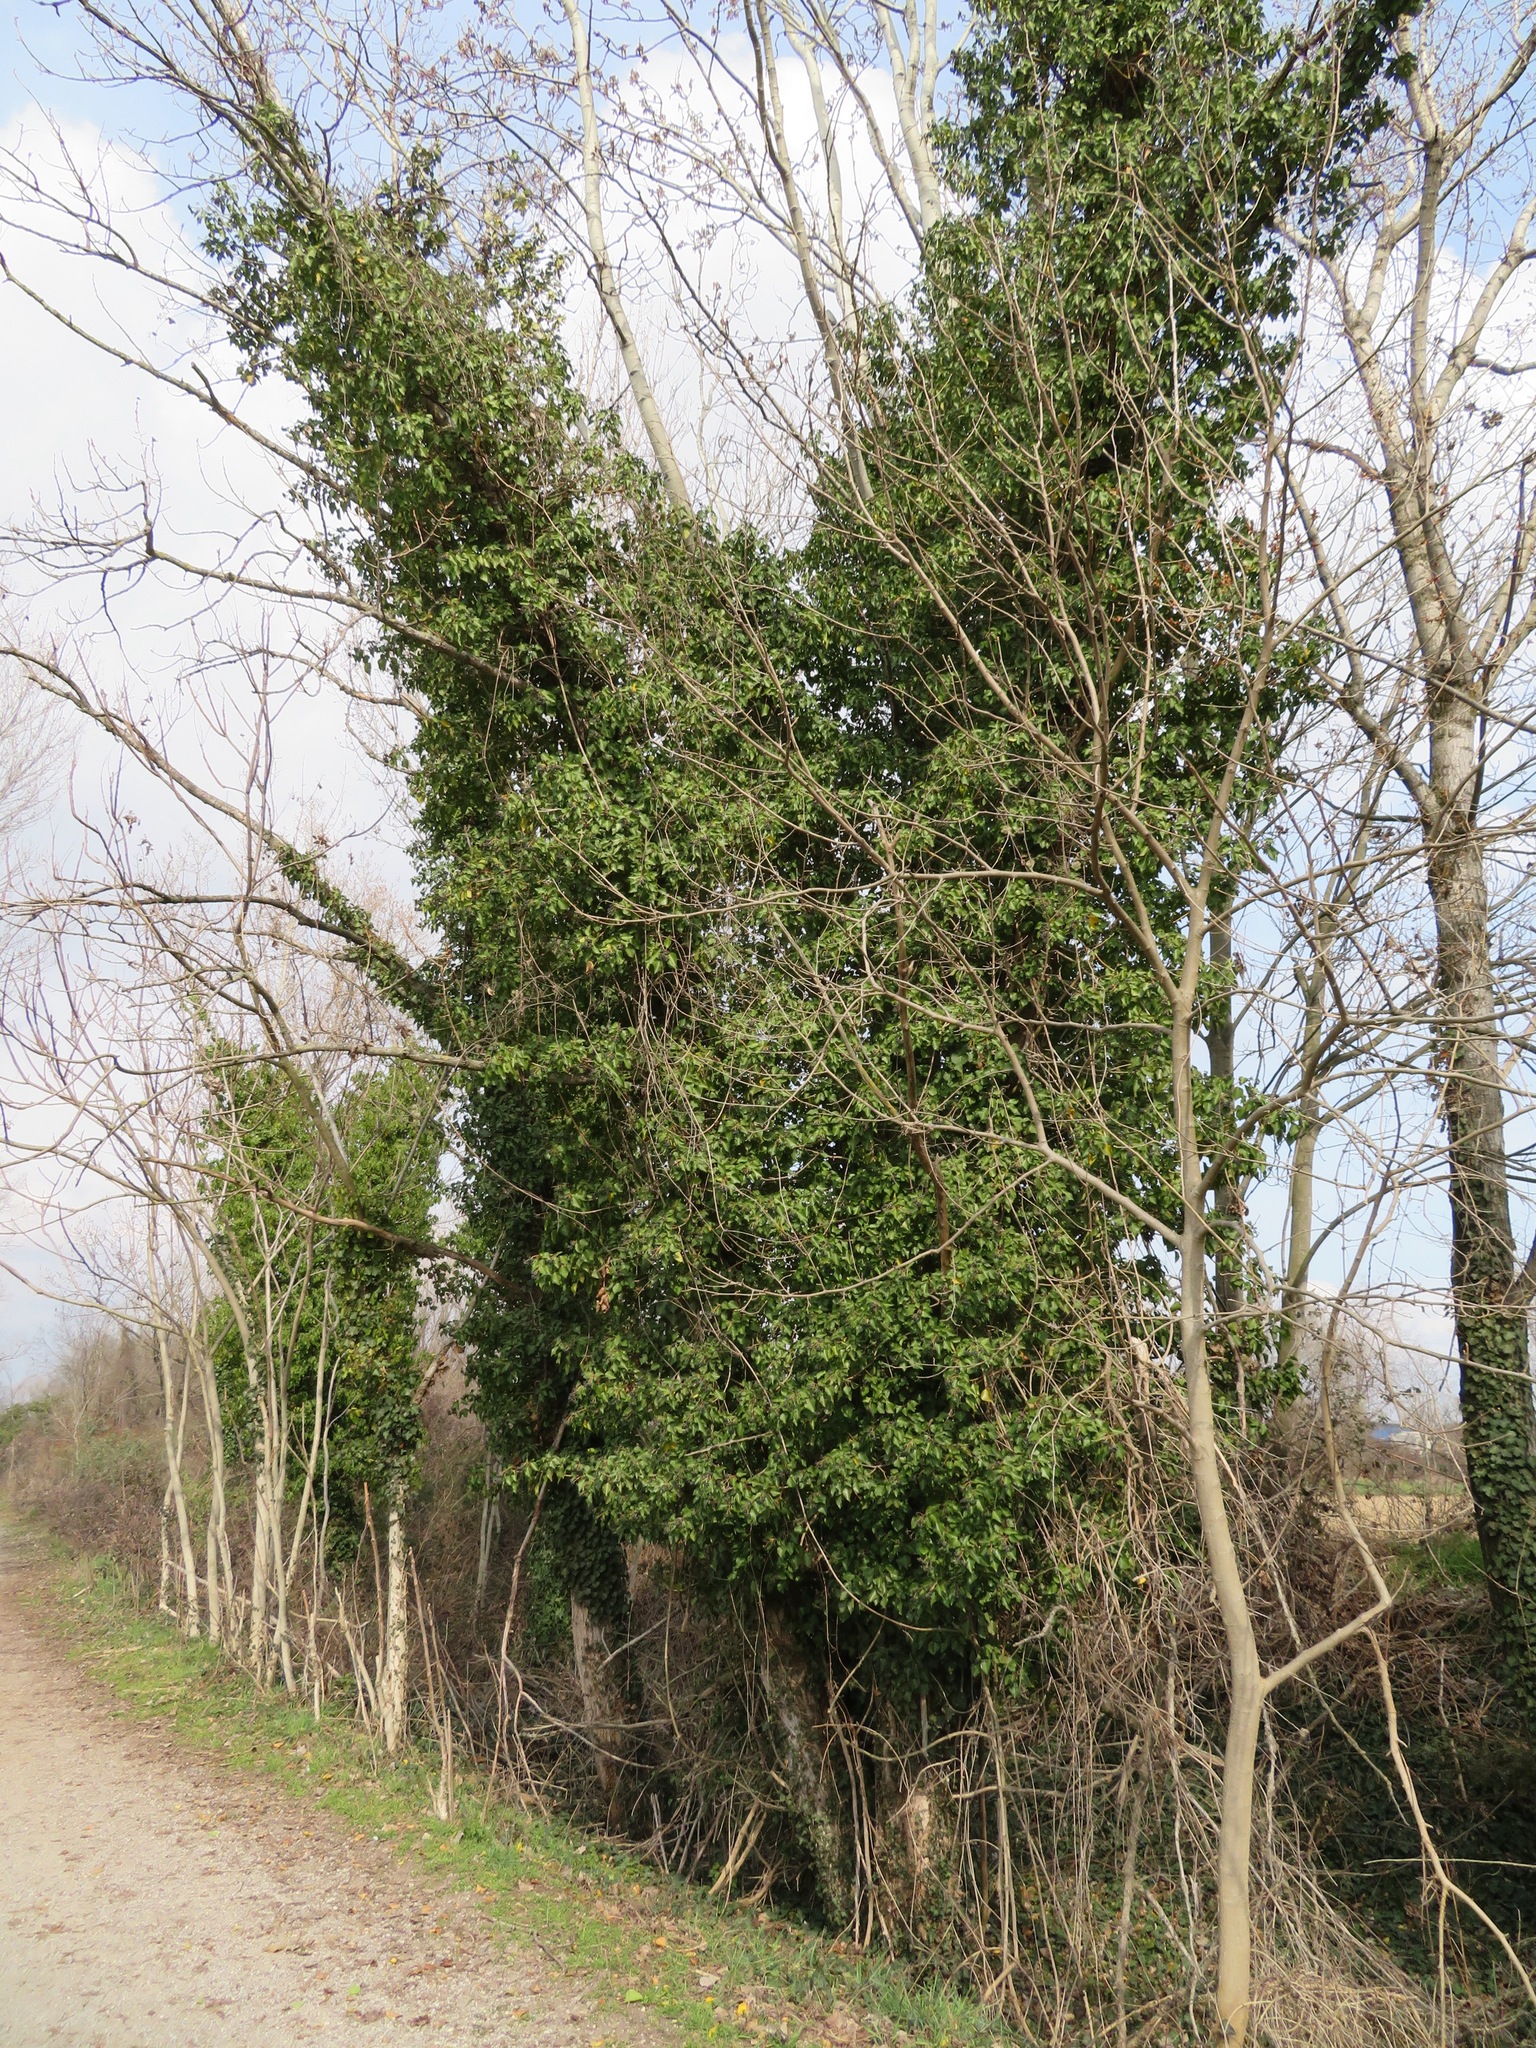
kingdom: Plantae
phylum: Tracheophyta
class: Magnoliopsida
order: Apiales
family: Araliaceae
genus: Hedera
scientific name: Hedera helix
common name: Ivy
